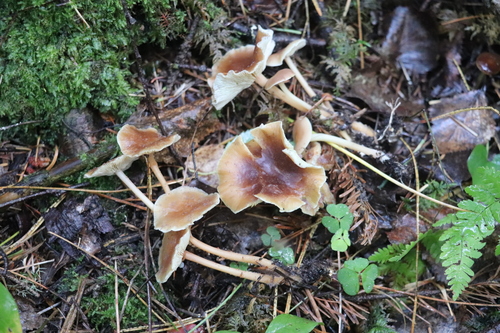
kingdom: Fungi
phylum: Basidiomycota
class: Agaricomycetes
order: Agaricales
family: Omphalotaceae
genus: Gymnopus
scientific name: Gymnopus ocior
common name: Spring toughshank
